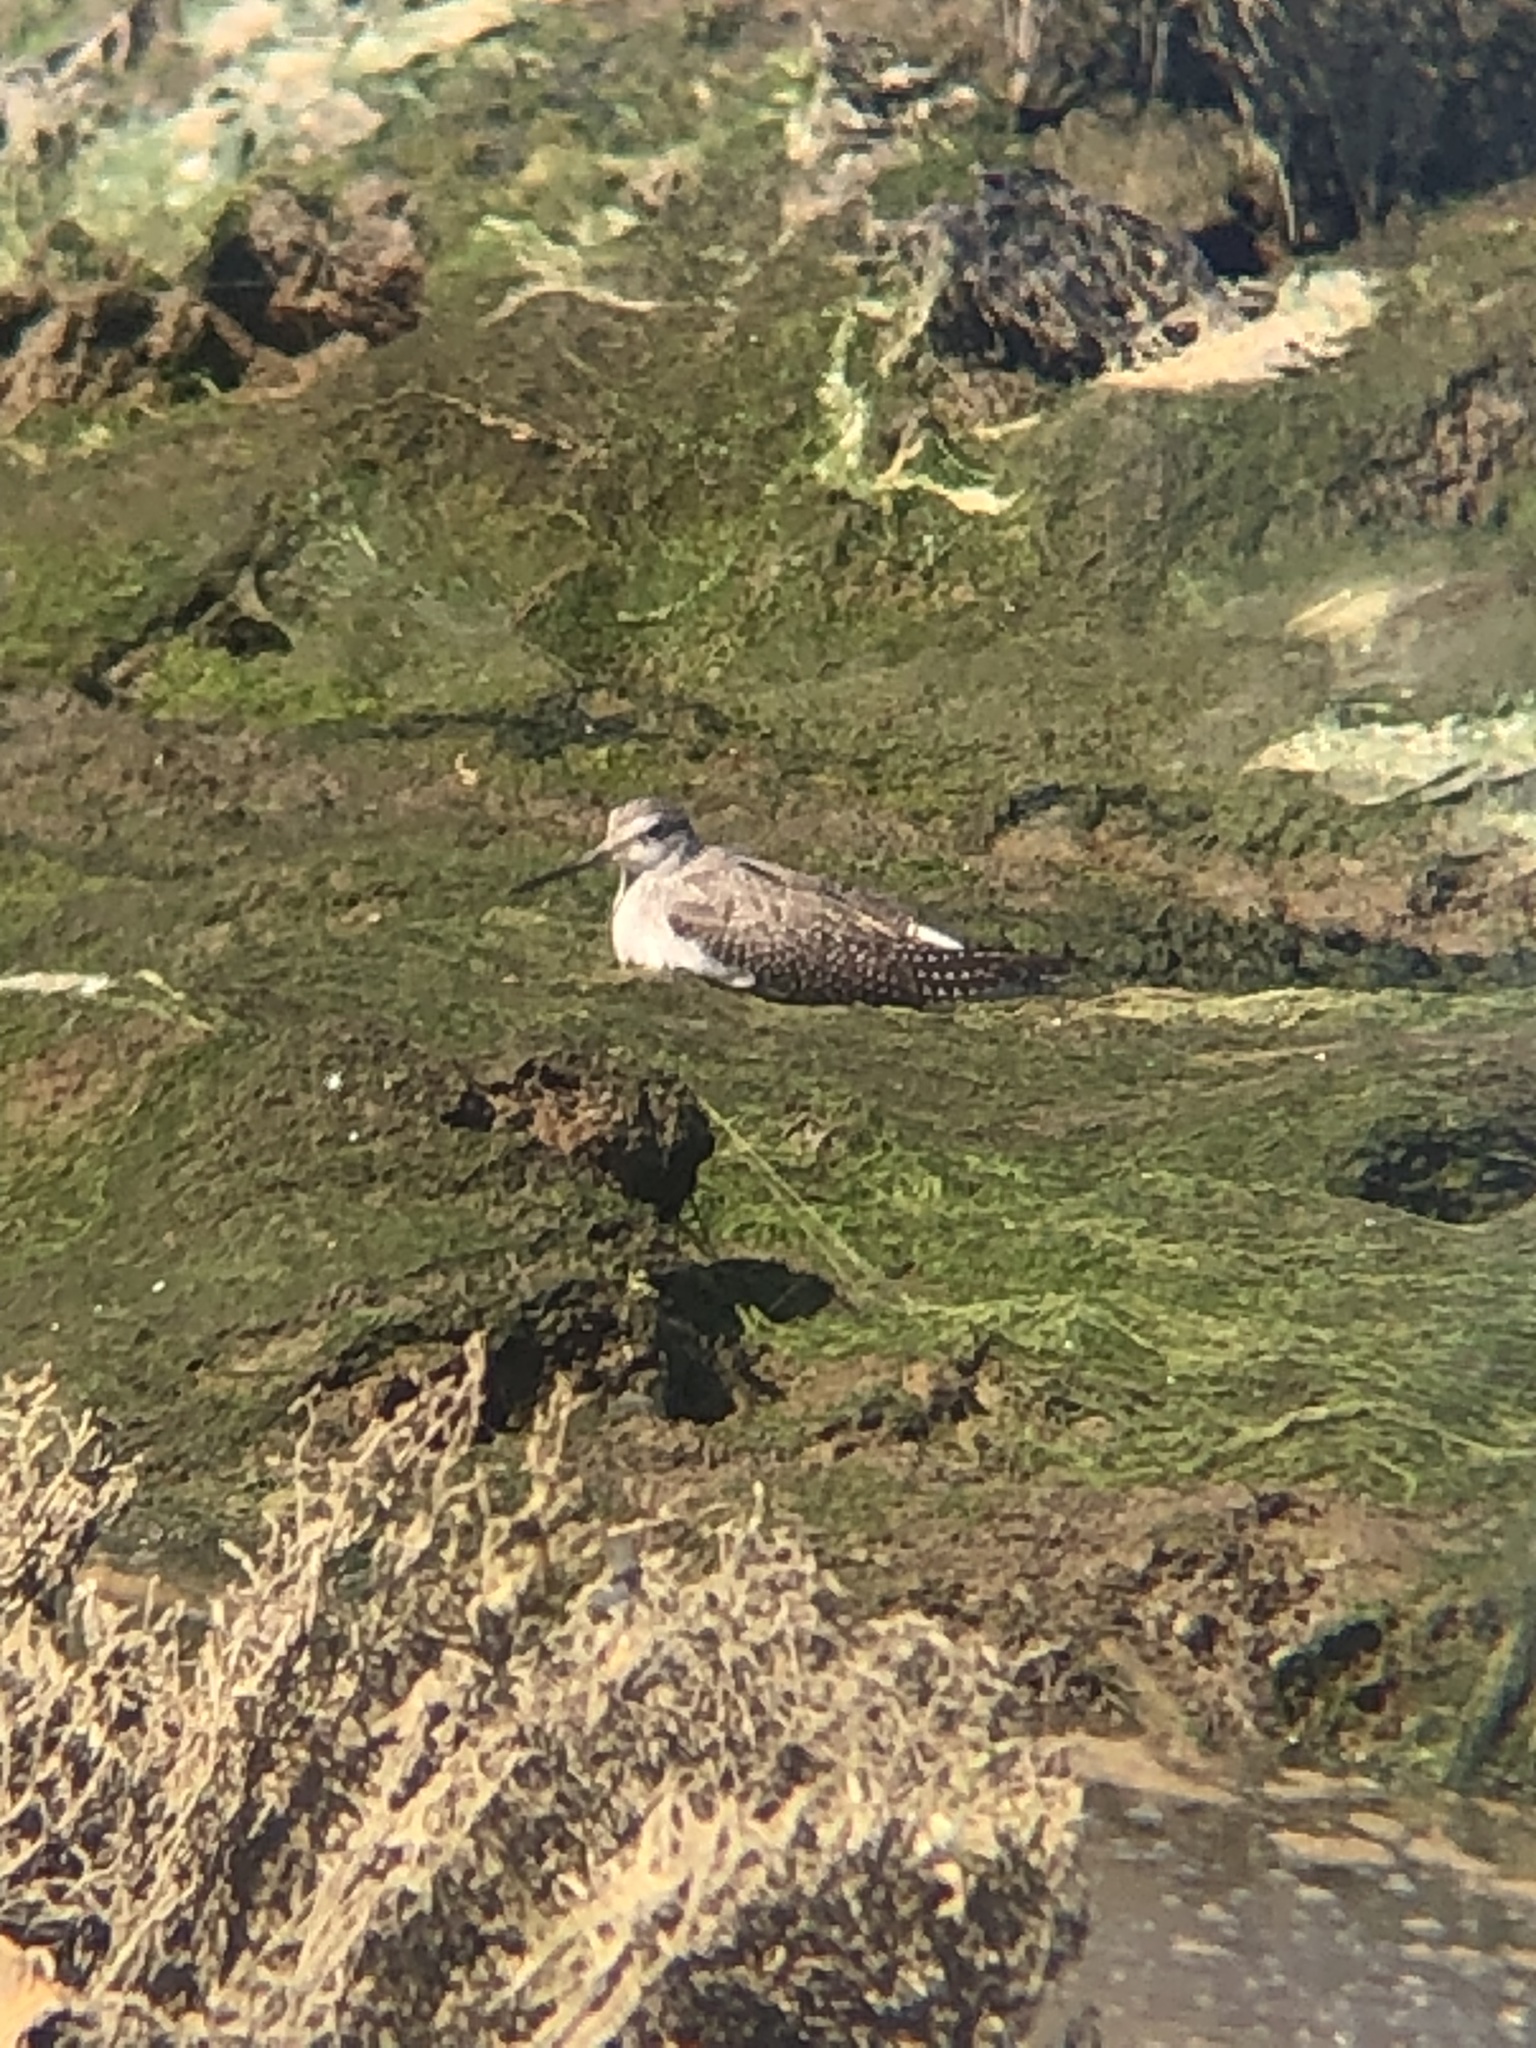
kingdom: Animalia
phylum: Chordata
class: Aves
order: Charadriiformes
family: Scolopacidae
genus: Tringa
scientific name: Tringa melanoleuca
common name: Greater yellowlegs
